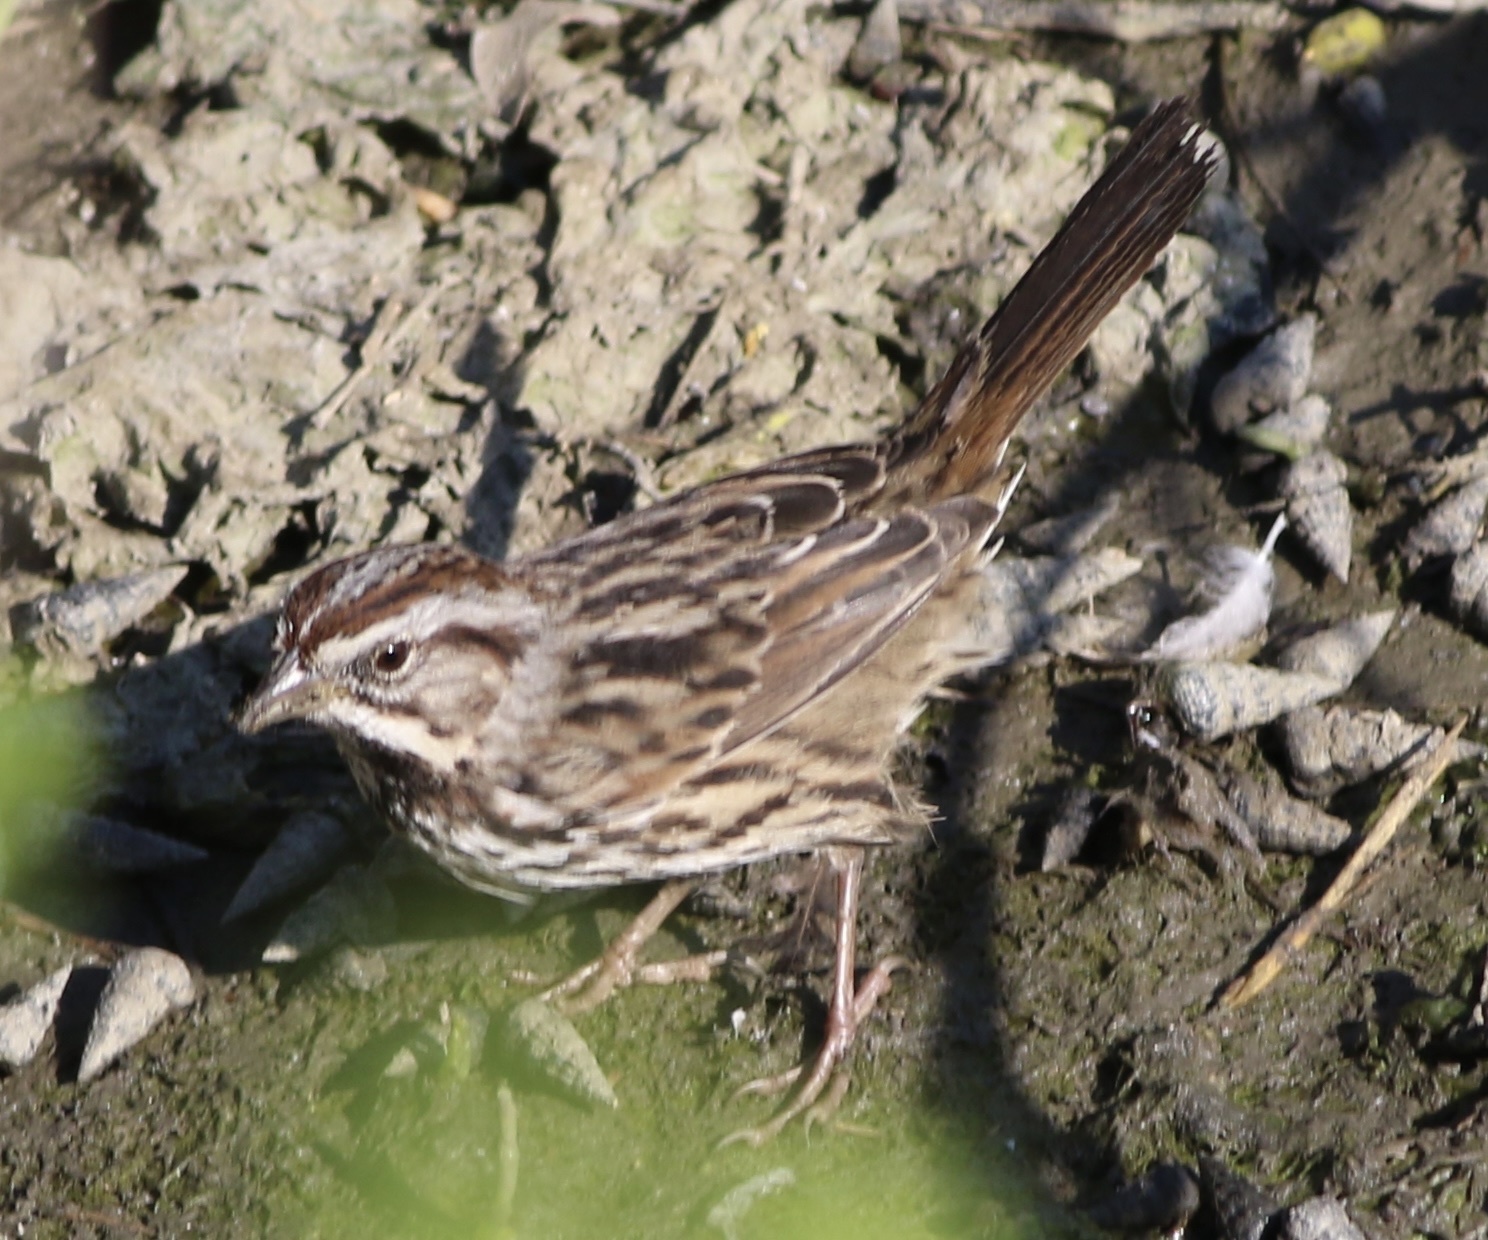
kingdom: Animalia
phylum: Chordata
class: Aves
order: Passeriformes
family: Passerellidae
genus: Melospiza
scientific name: Melospiza melodia
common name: Song sparrow
